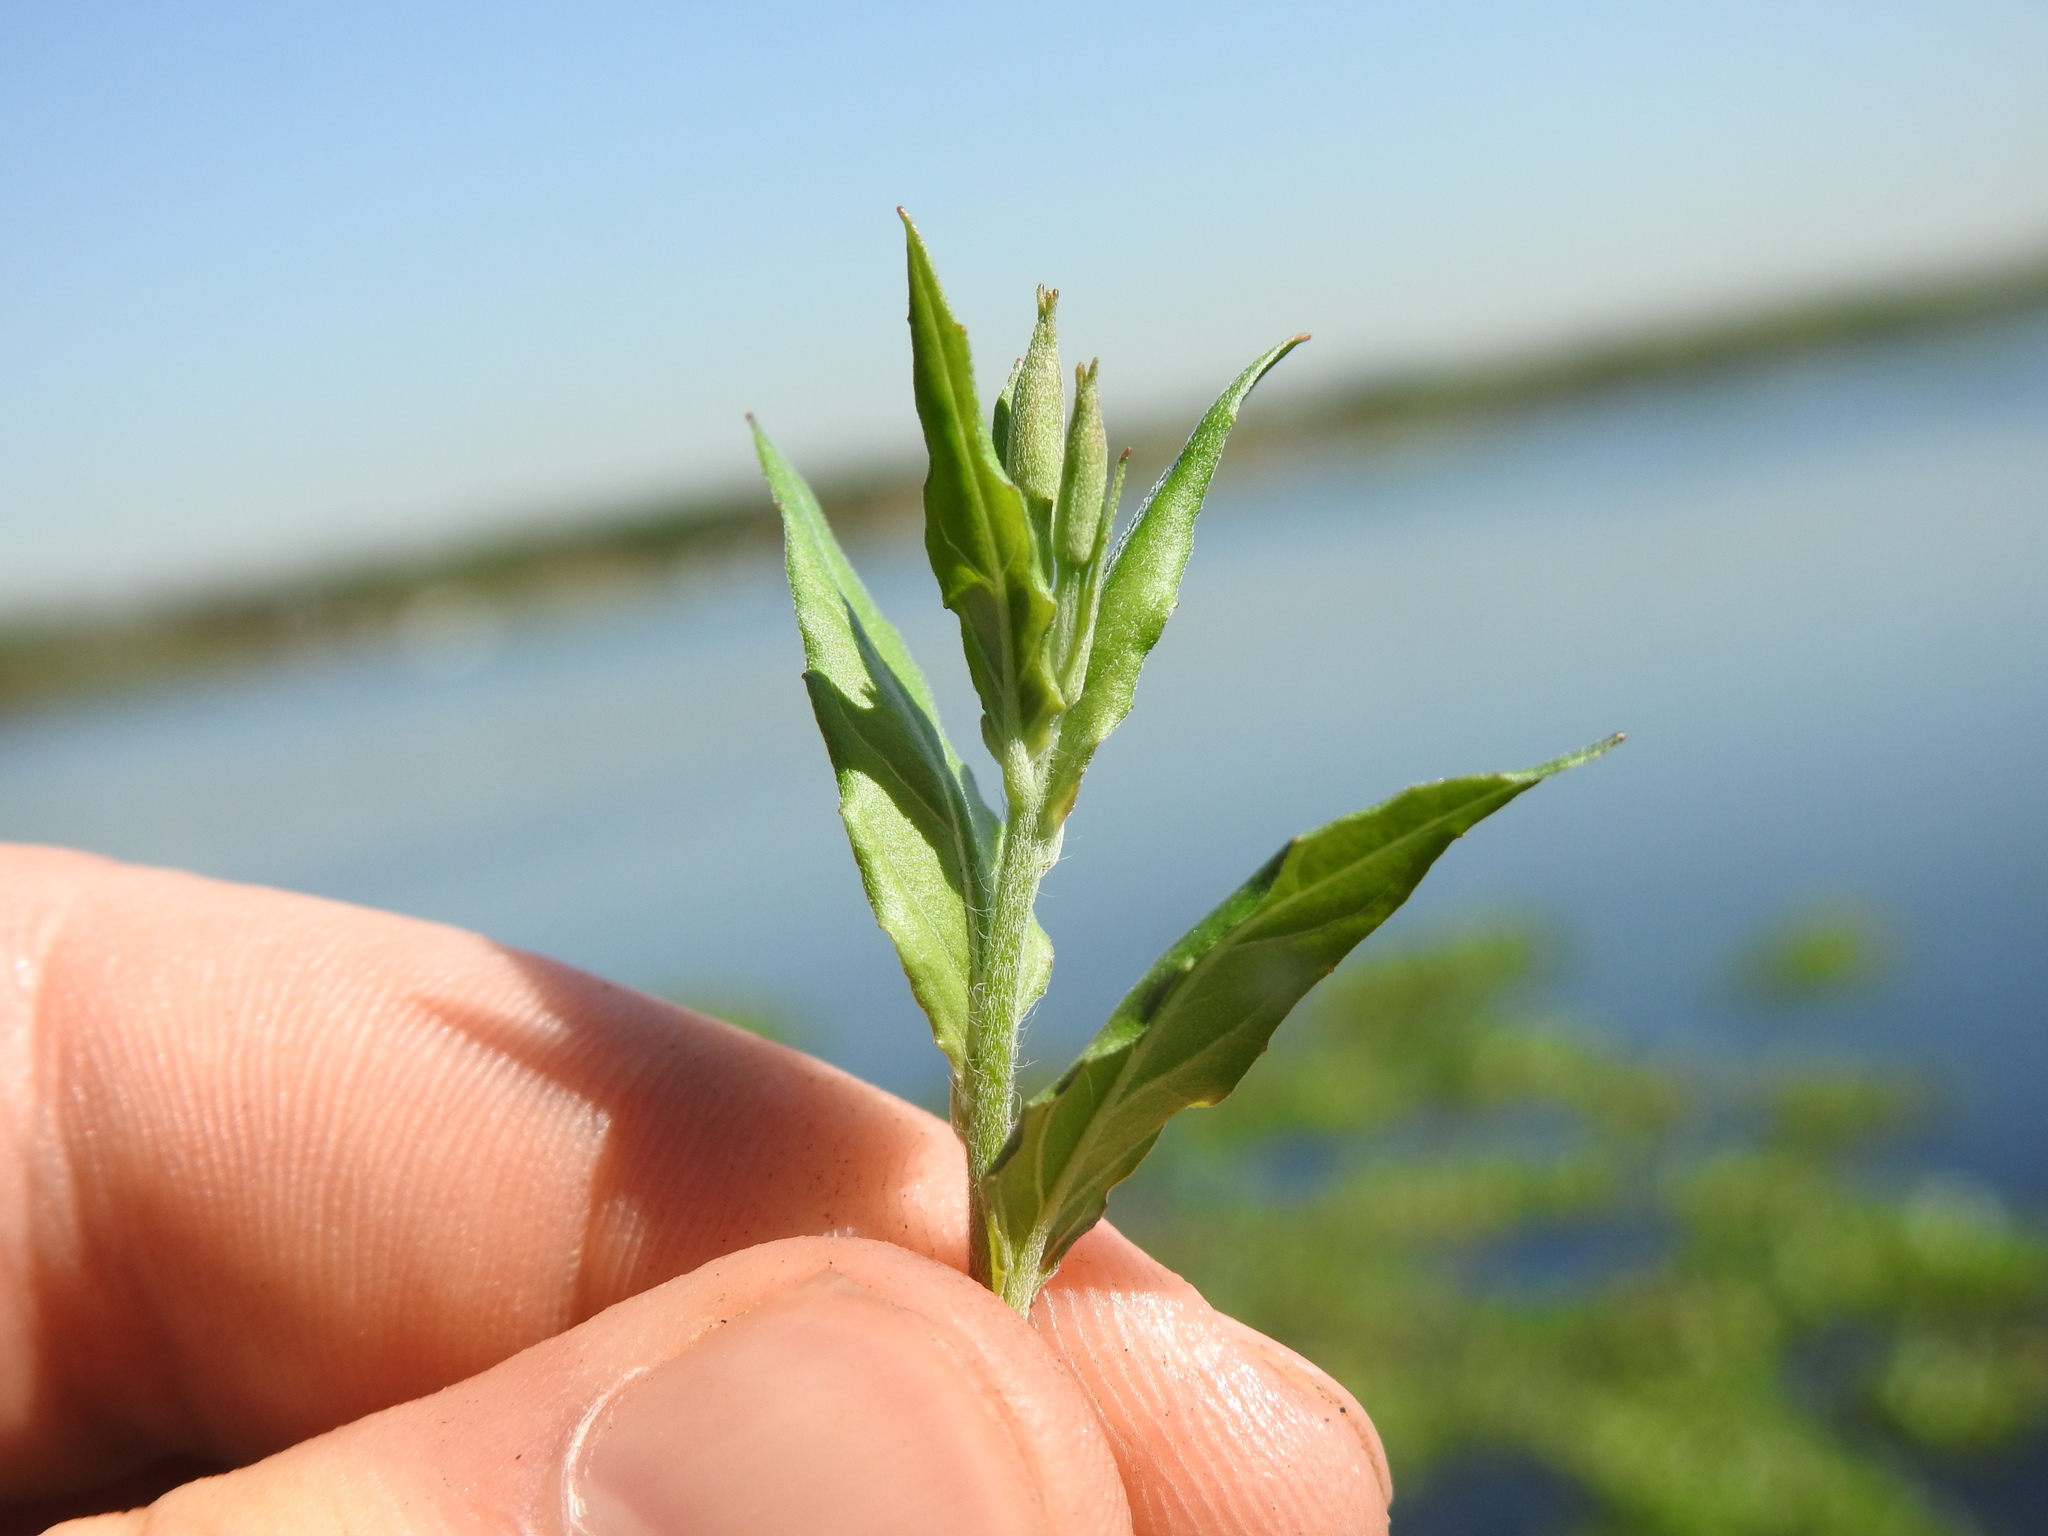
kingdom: Plantae
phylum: Tracheophyta
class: Magnoliopsida
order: Myrtales
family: Onagraceae
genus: Oenothera
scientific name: Oenothera rosea
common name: Rosy evening-primrose
